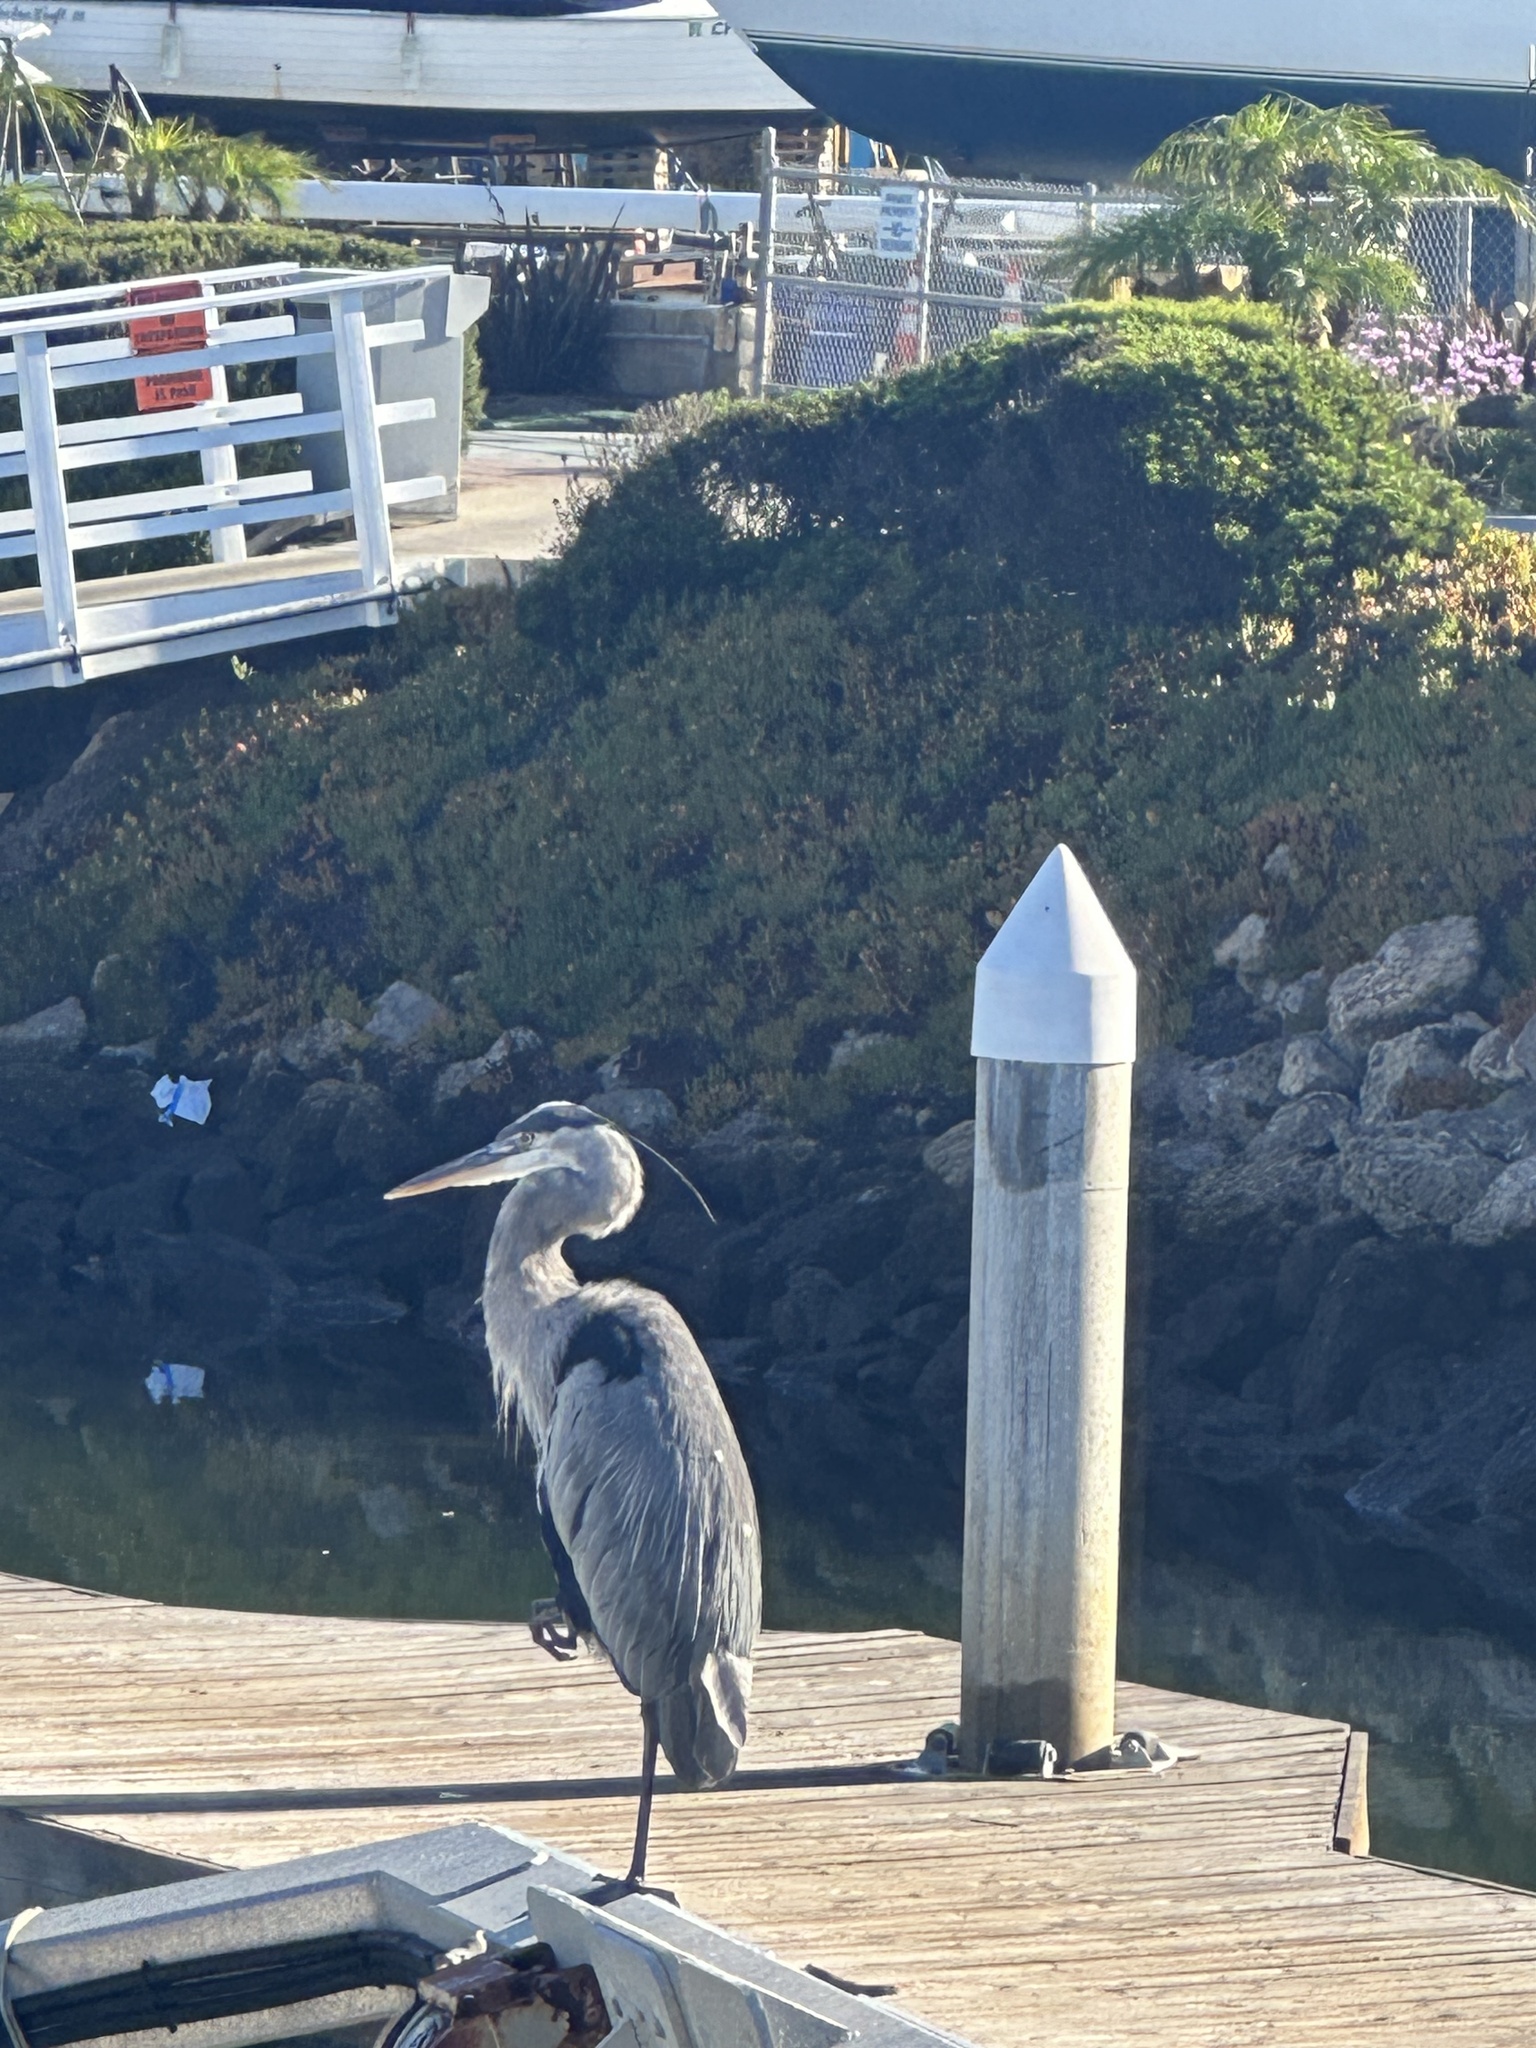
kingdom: Animalia
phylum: Chordata
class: Aves
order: Pelecaniformes
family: Ardeidae
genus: Ardea
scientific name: Ardea herodias
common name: Great blue heron
